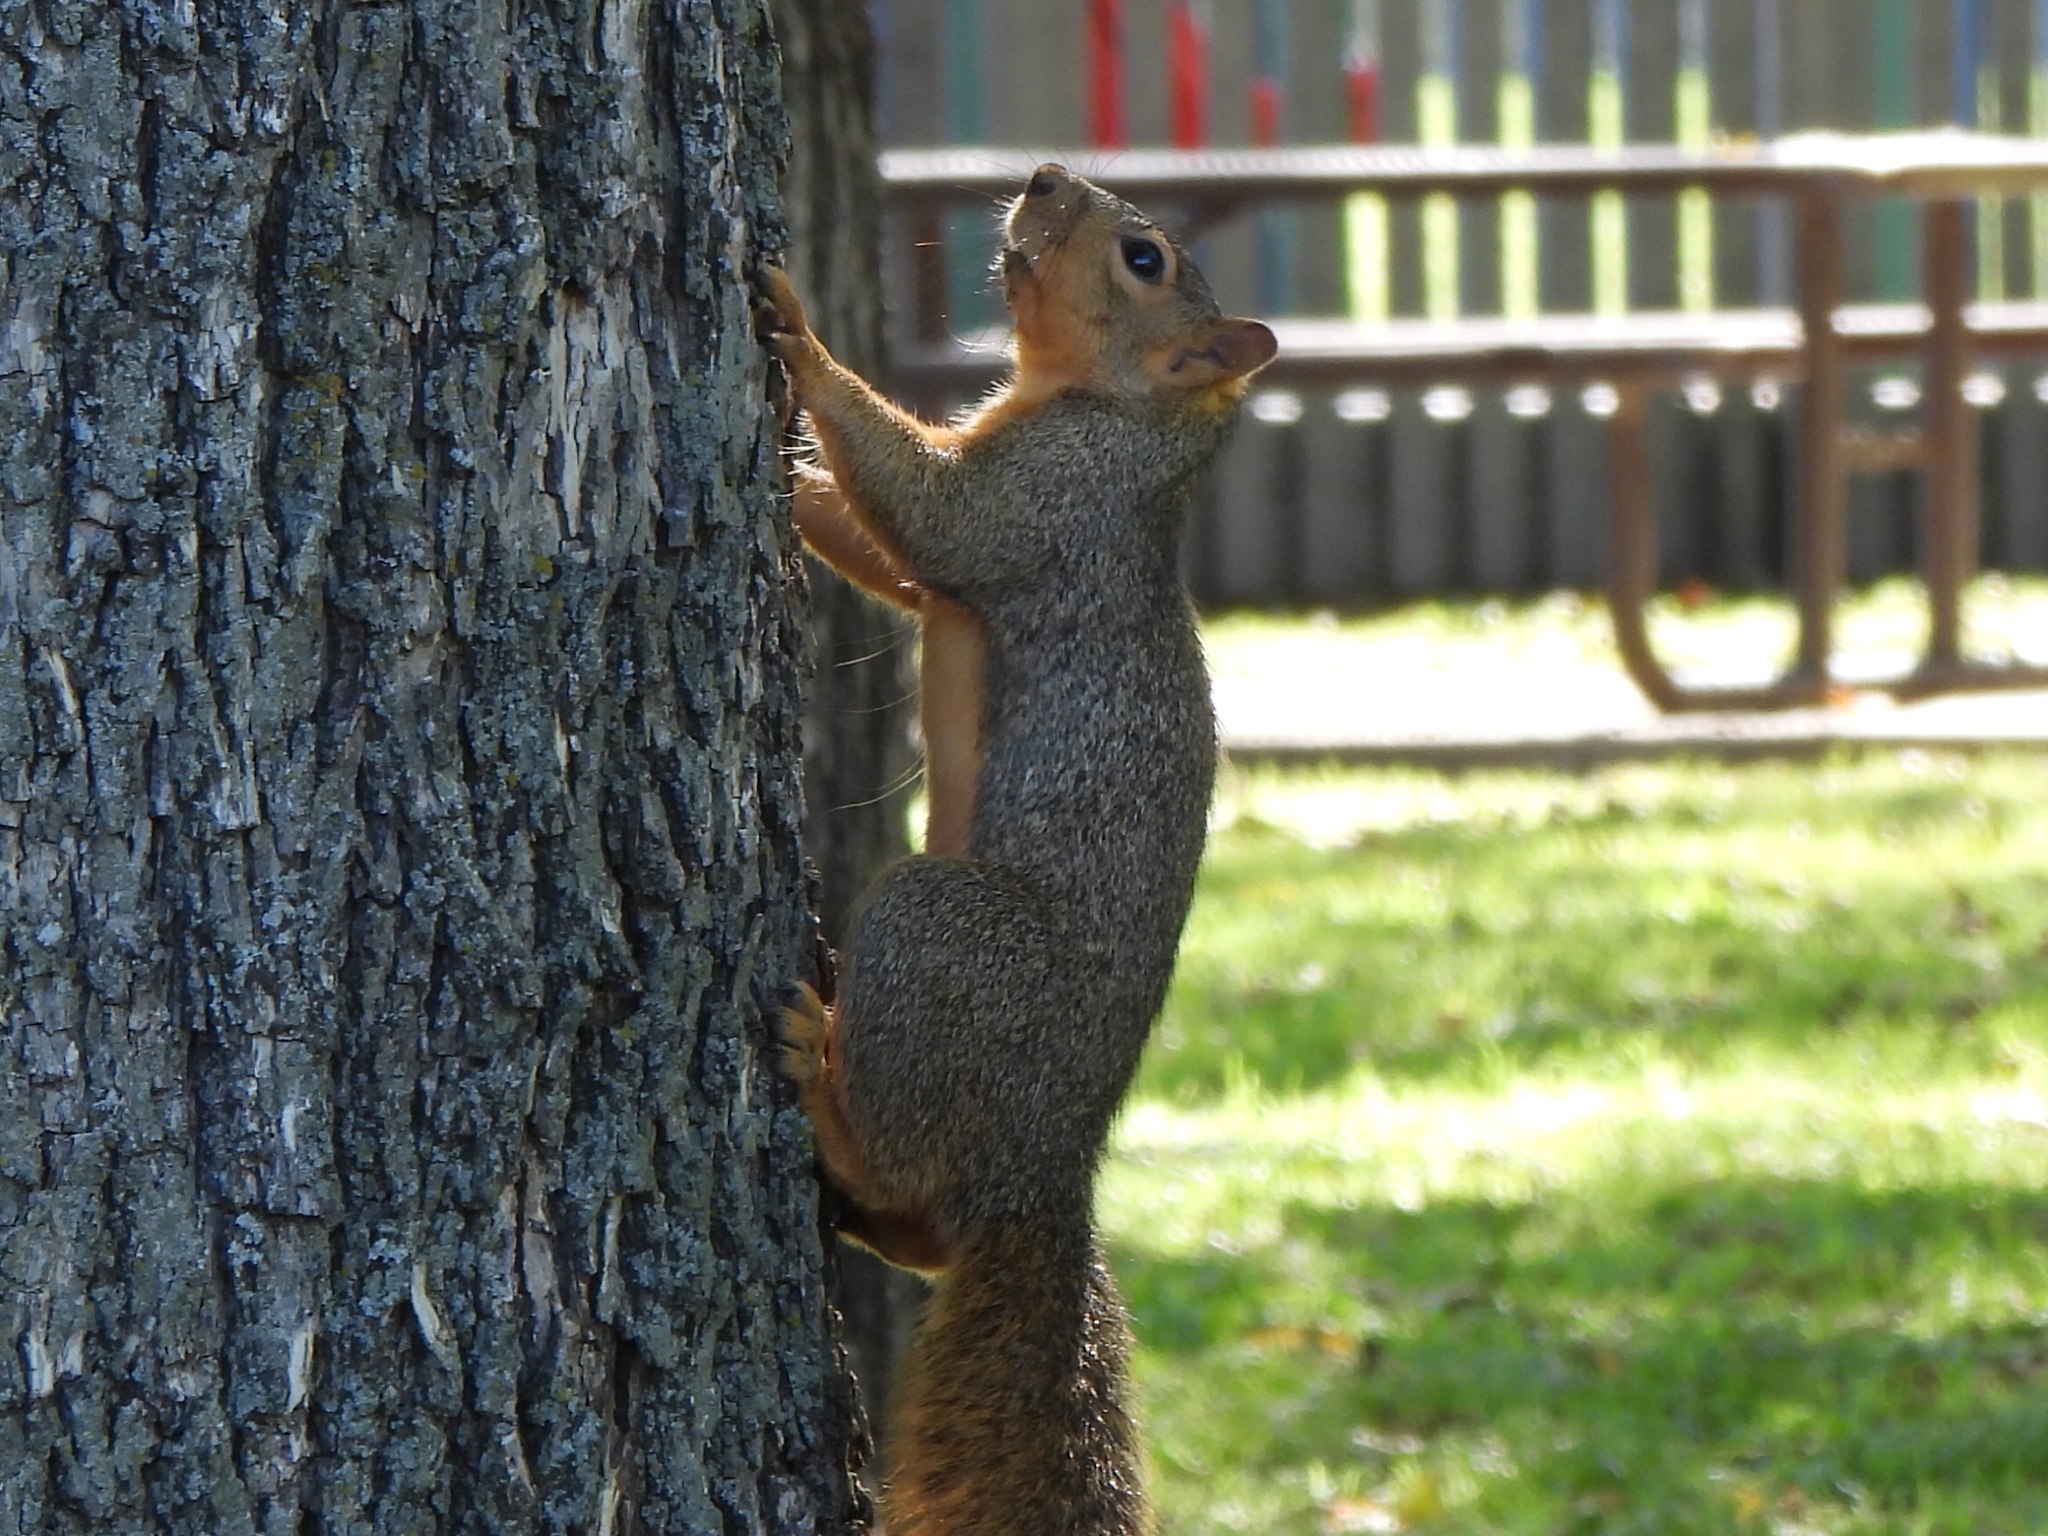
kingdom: Animalia
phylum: Chordata
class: Mammalia
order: Rodentia
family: Sciuridae
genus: Sciurus
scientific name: Sciurus niger
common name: Fox squirrel
